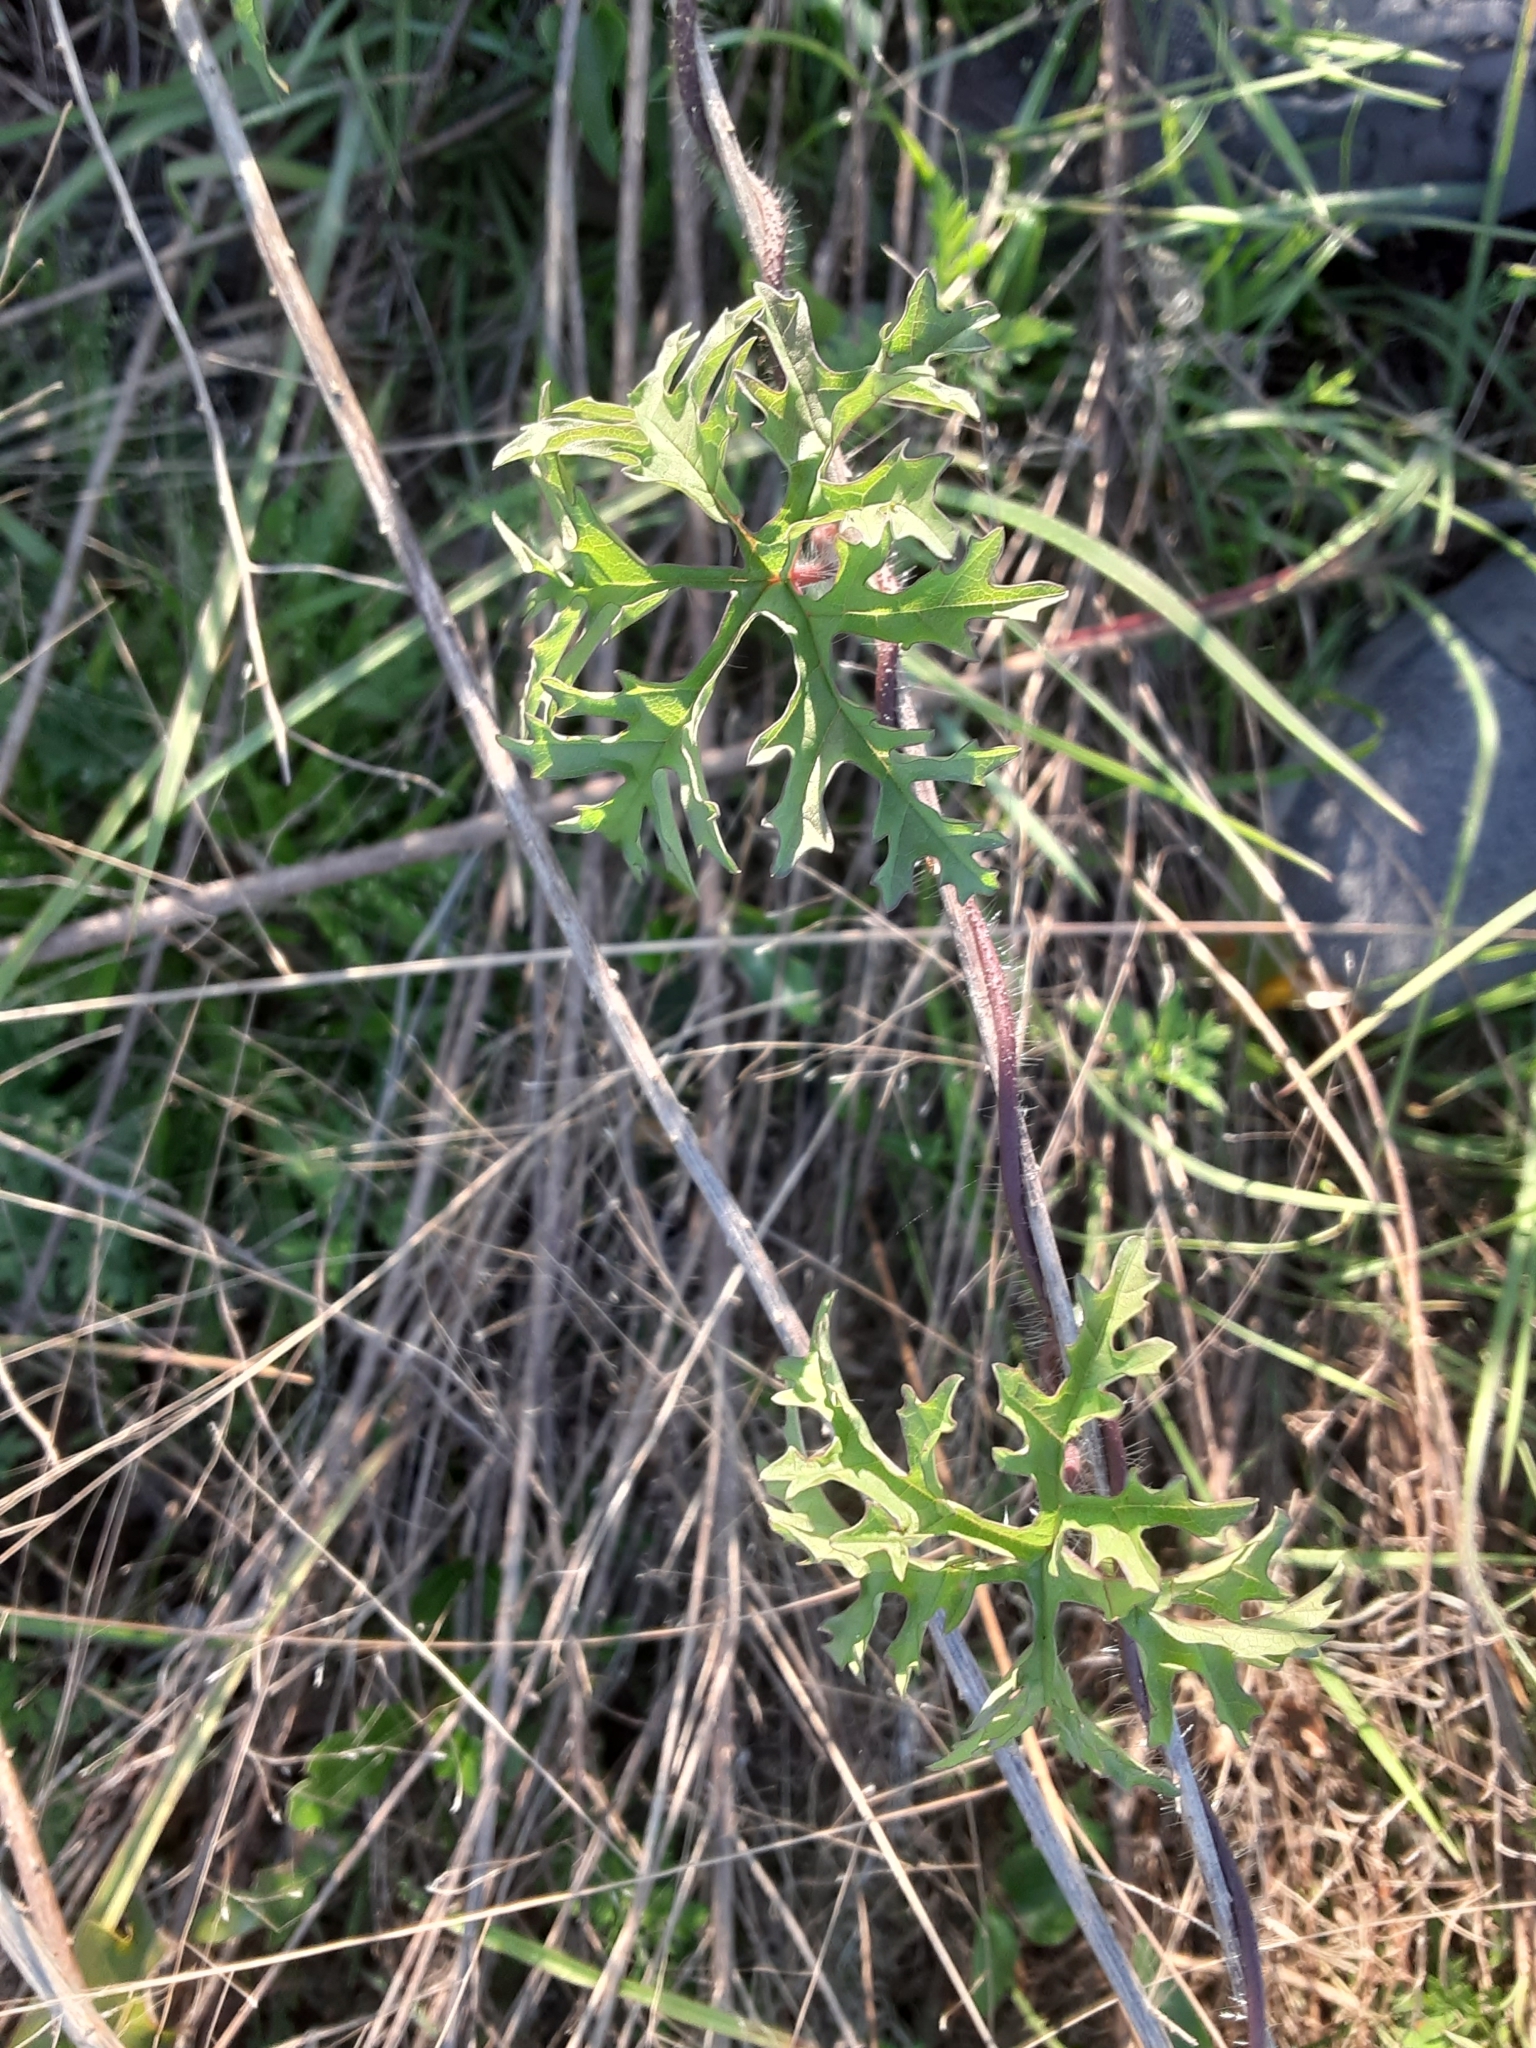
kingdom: Plantae
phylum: Tracheophyta
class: Magnoliopsida
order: Solanales
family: Convolvulaceae
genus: Distimake
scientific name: Distimake dissectus
